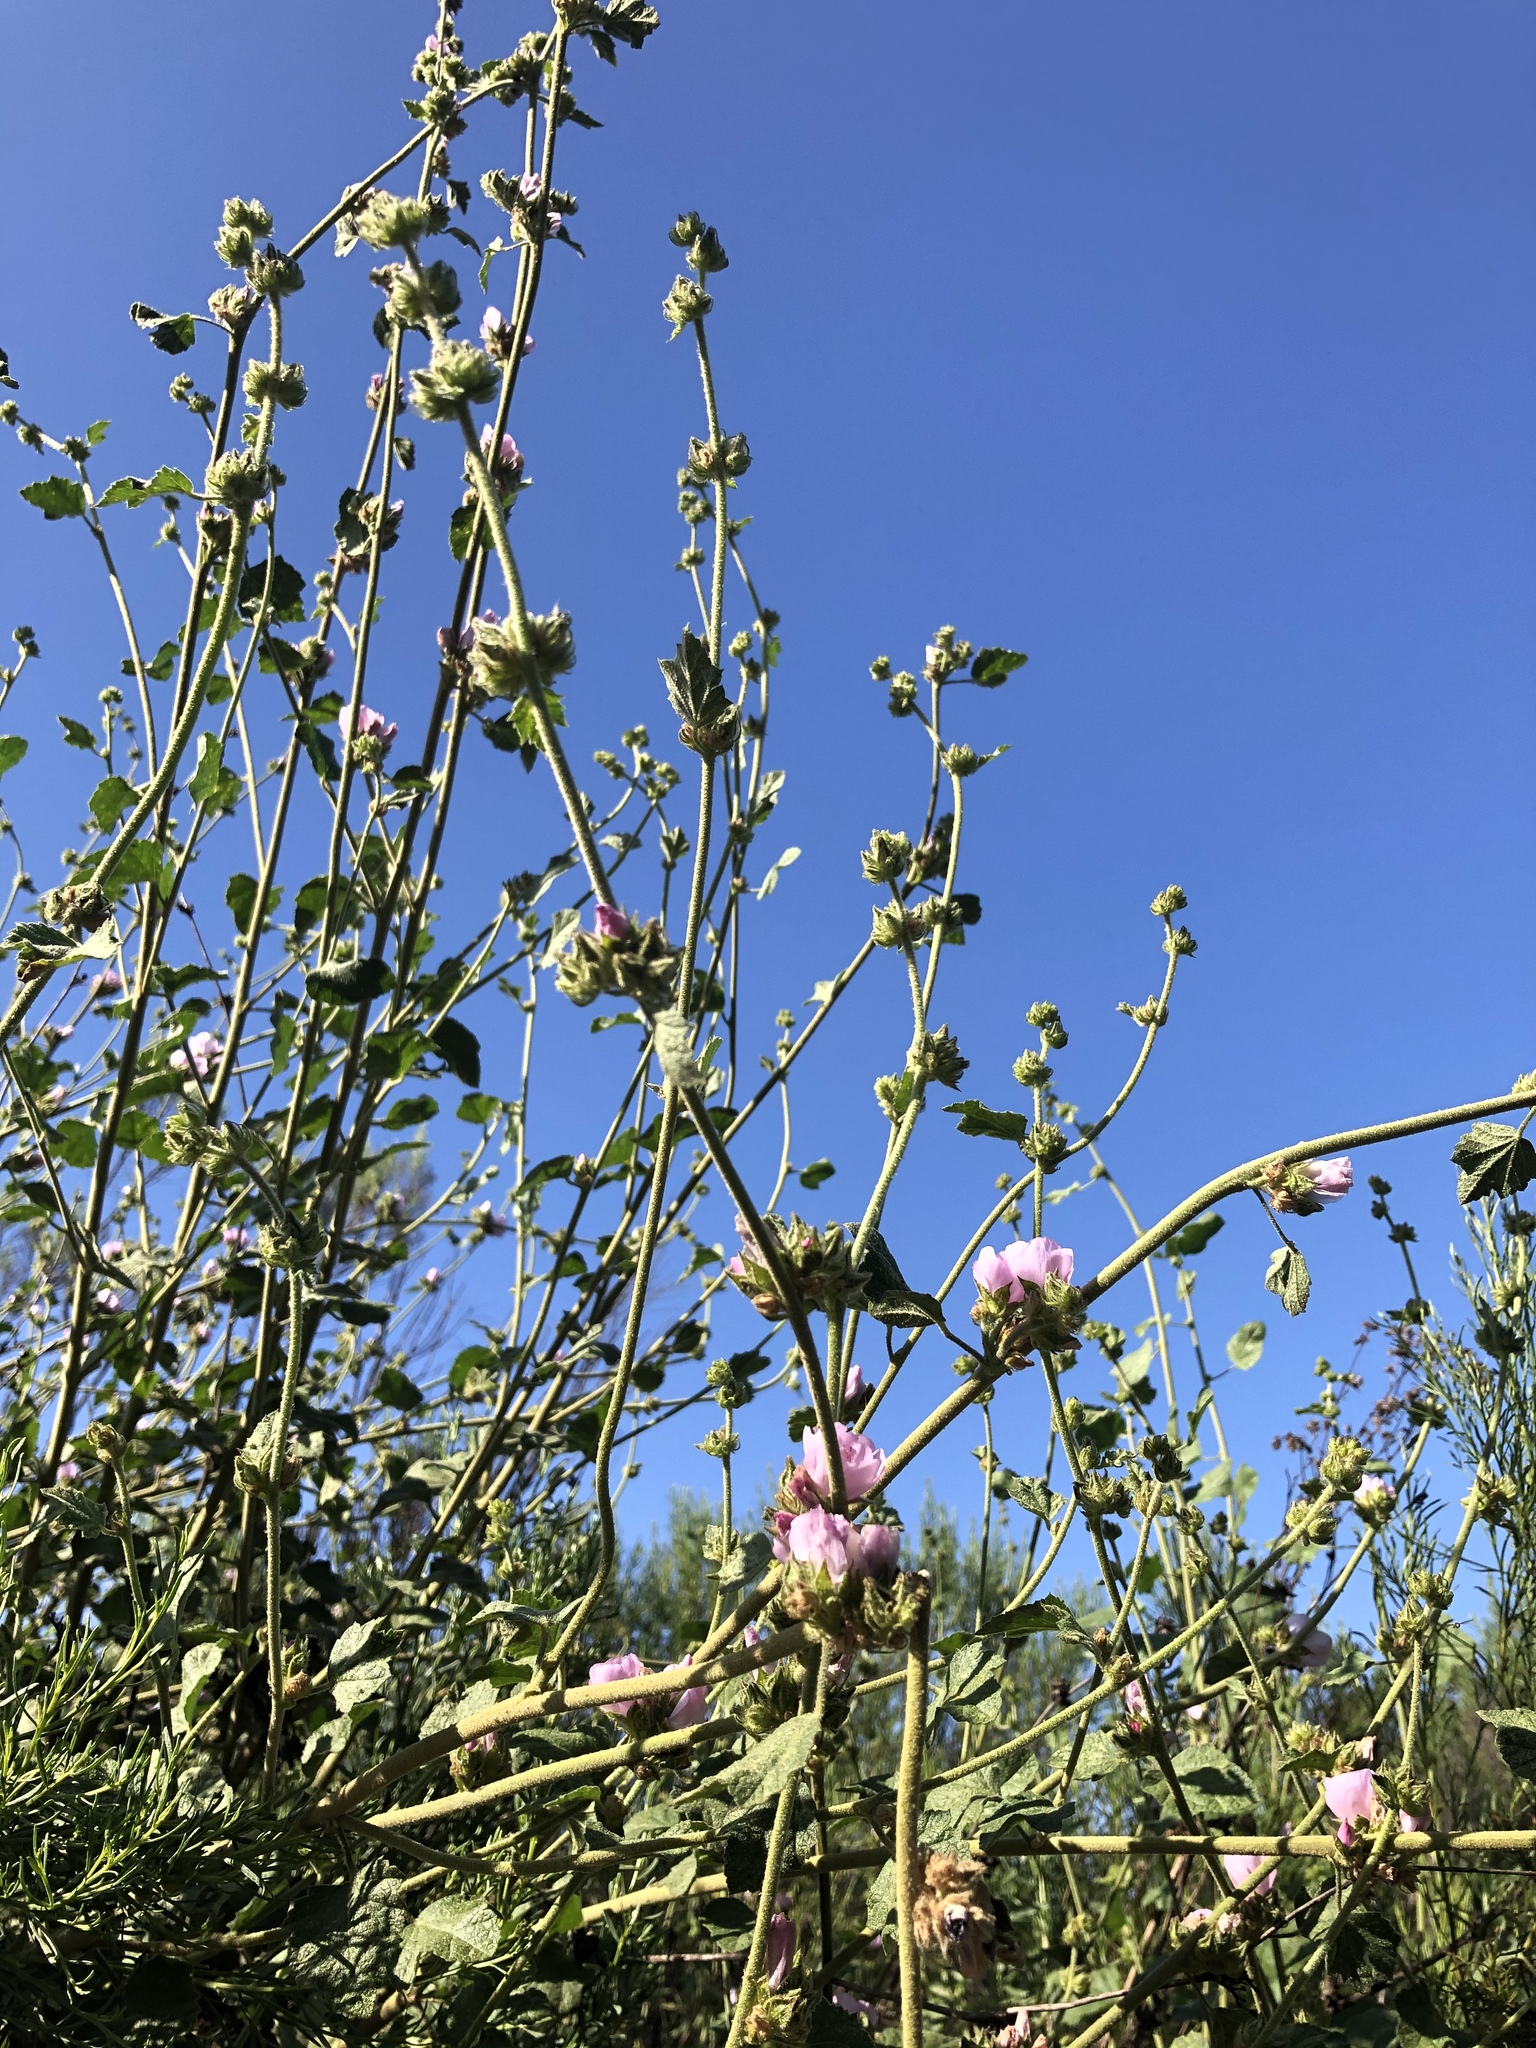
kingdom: Plantae
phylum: Tracheophyta
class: Magnoliopsida
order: Malvales
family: Malvaceae
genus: Malacothamnus
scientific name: Malacothamnus densiflorus
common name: Yellow-stem bush-mallow
